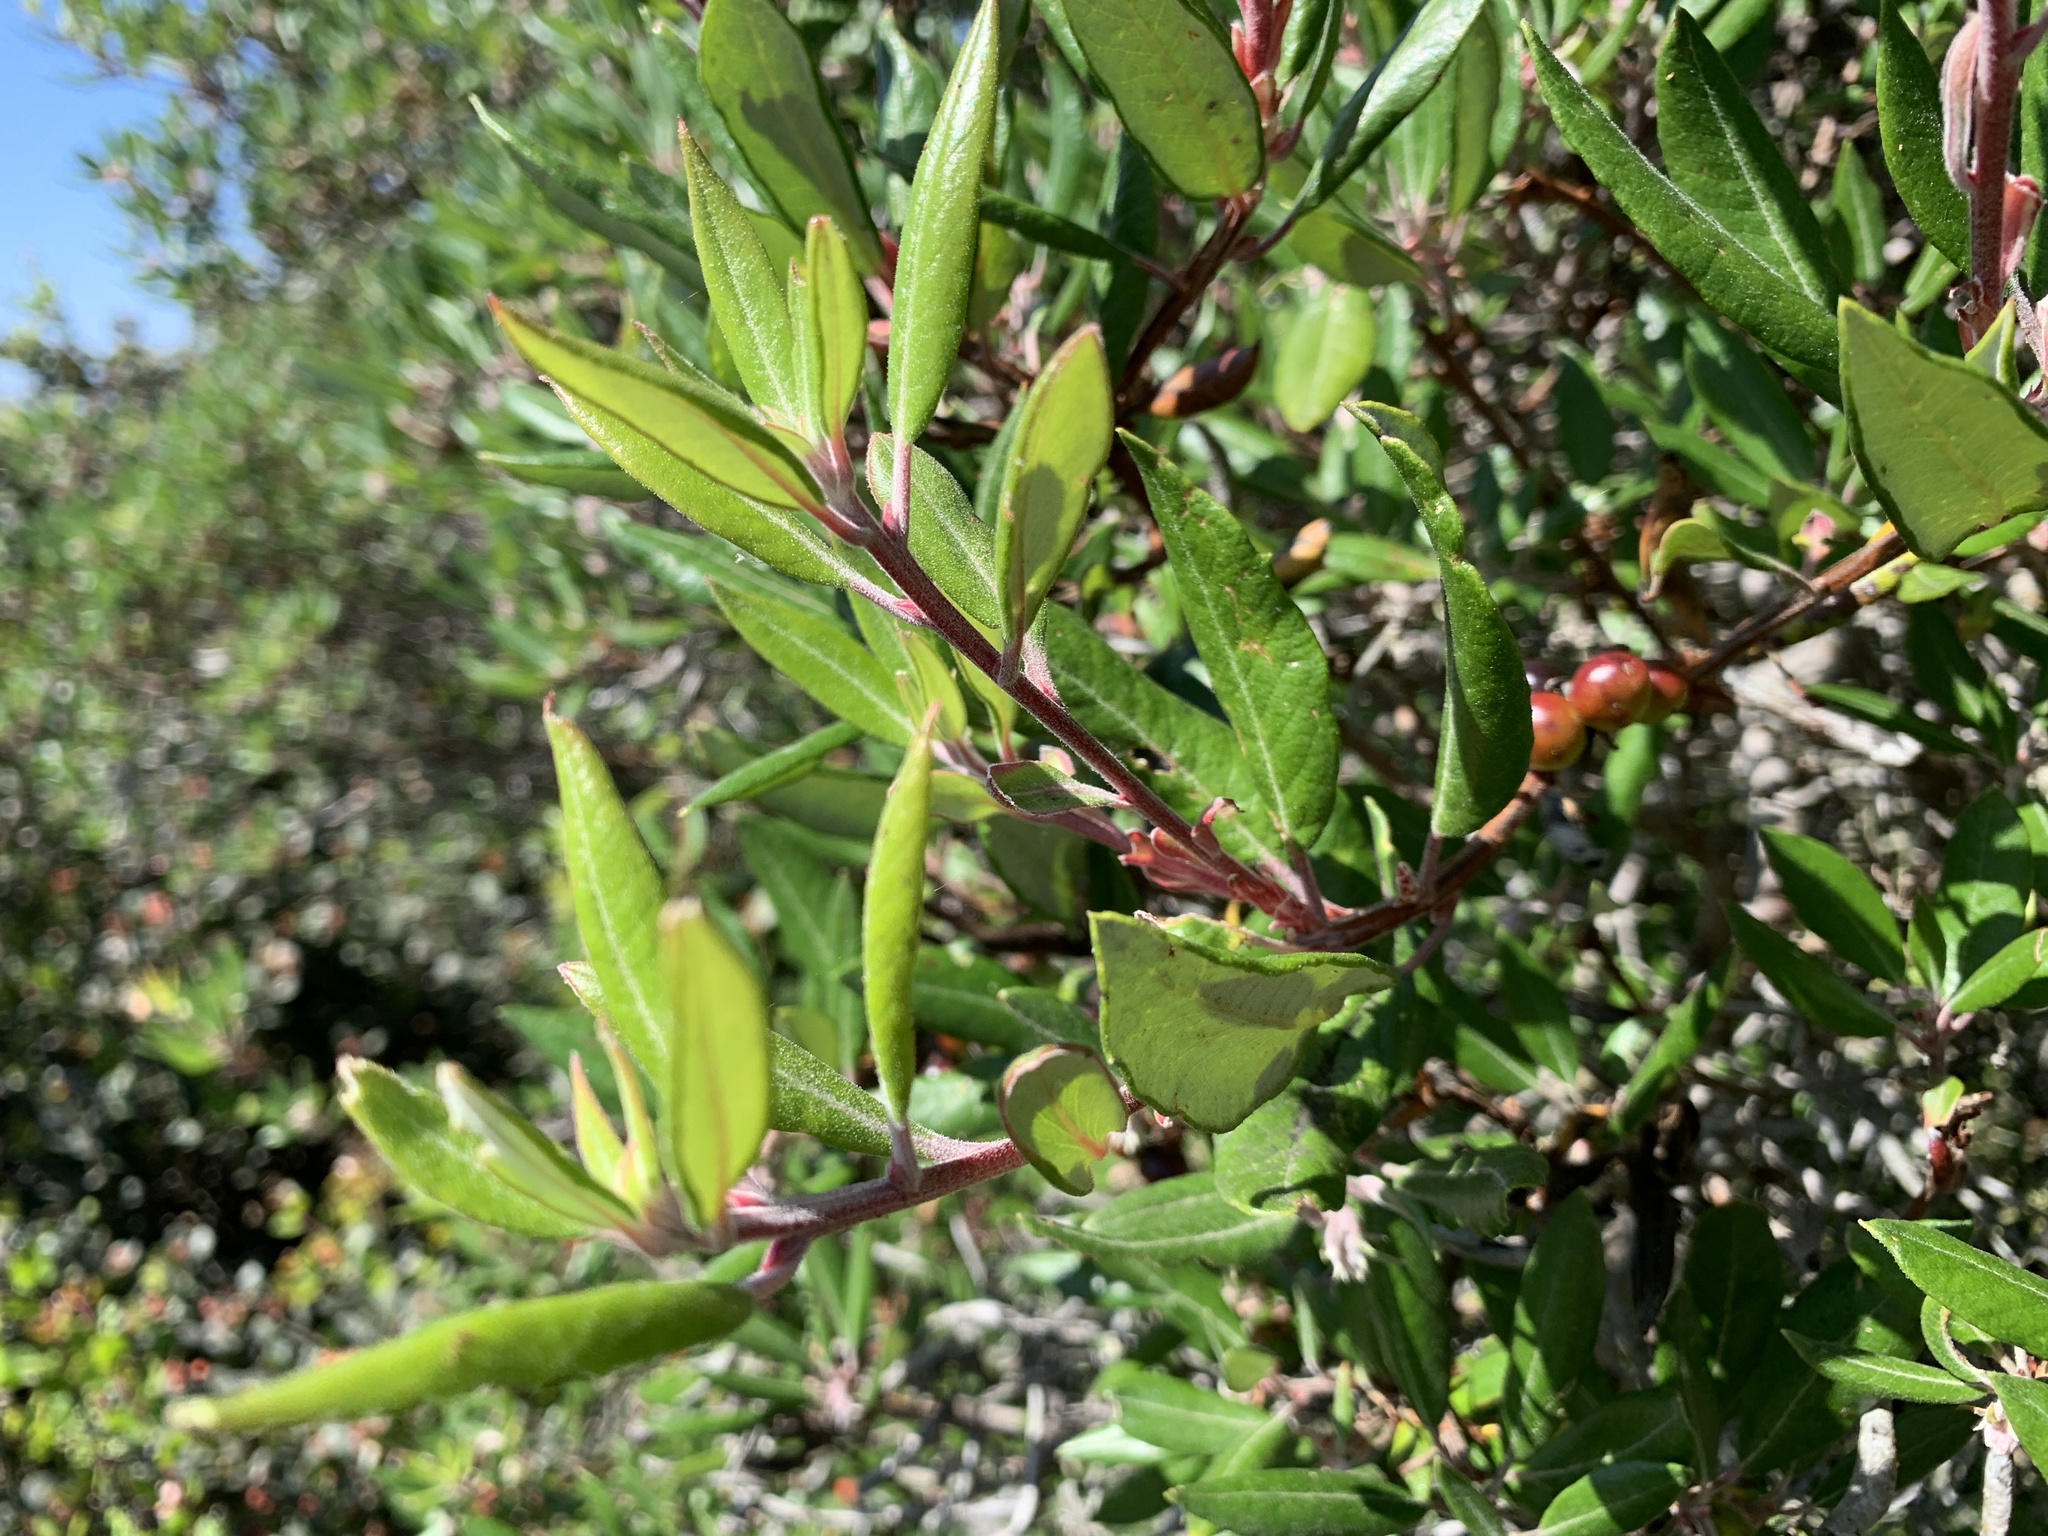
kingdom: Plantae
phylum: Tracheophyta
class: Magnoliopsida
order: Ericales
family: Ericaceae
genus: Arctostaphylos
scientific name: Arctostaphylos bicolor
